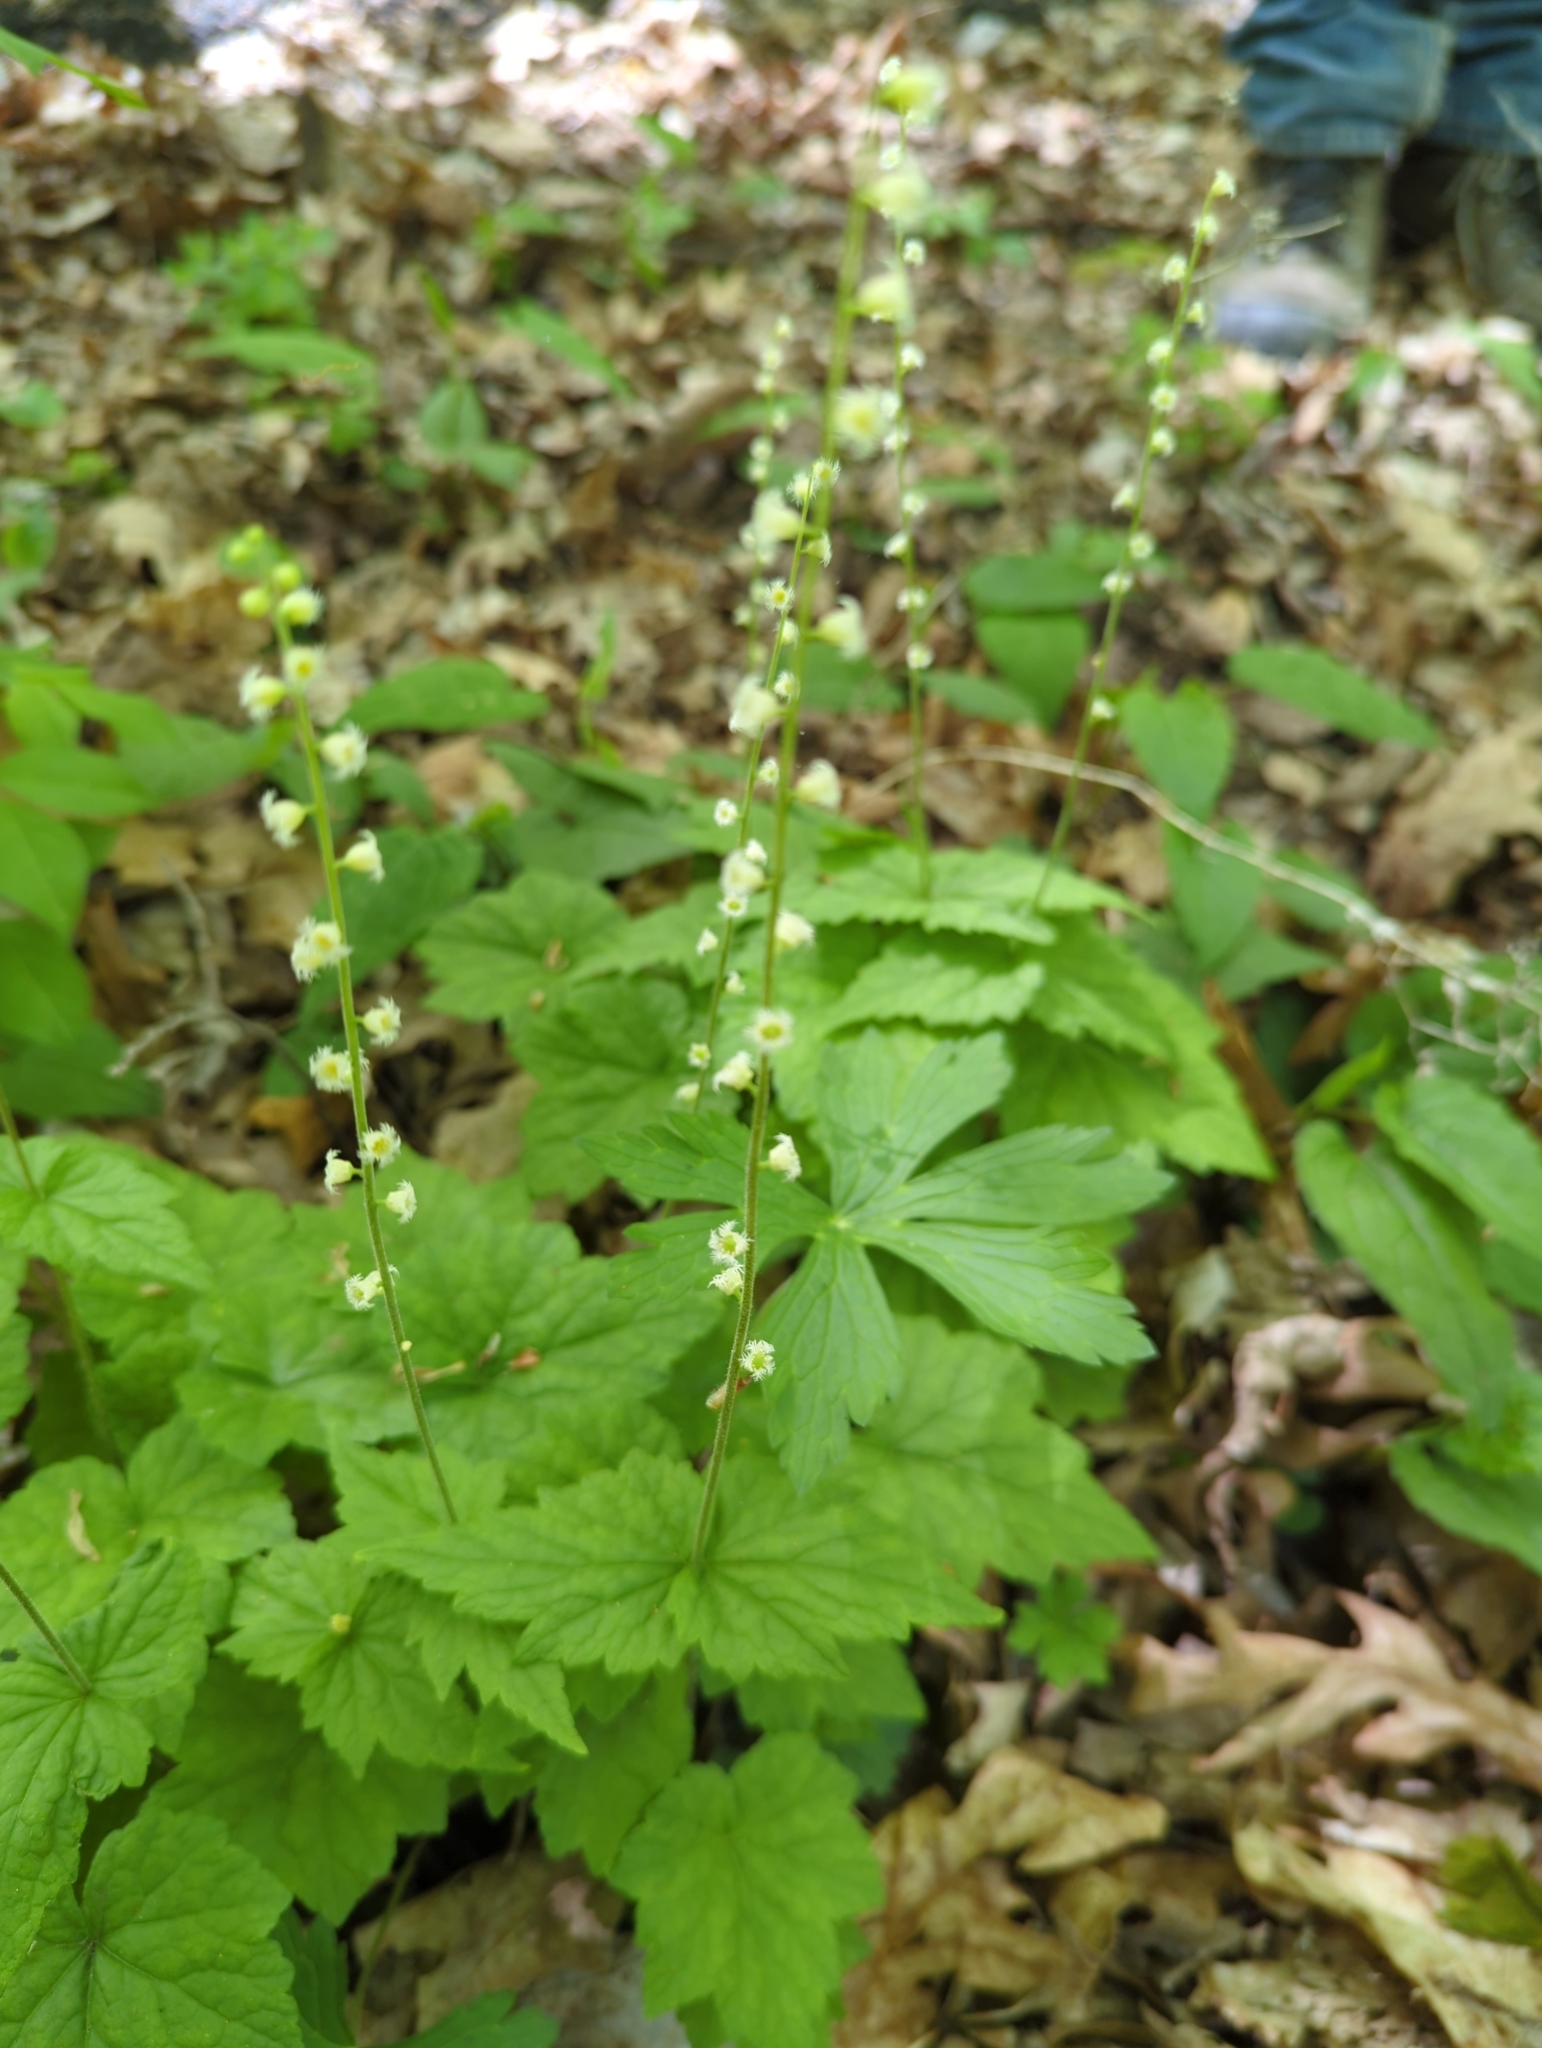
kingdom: Plantae
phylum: Tracheophyta
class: Magnoliopsida
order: Saxifragales
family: Saxifragaceae
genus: Mitella
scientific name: Mitella diphylla
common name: Coolwort
